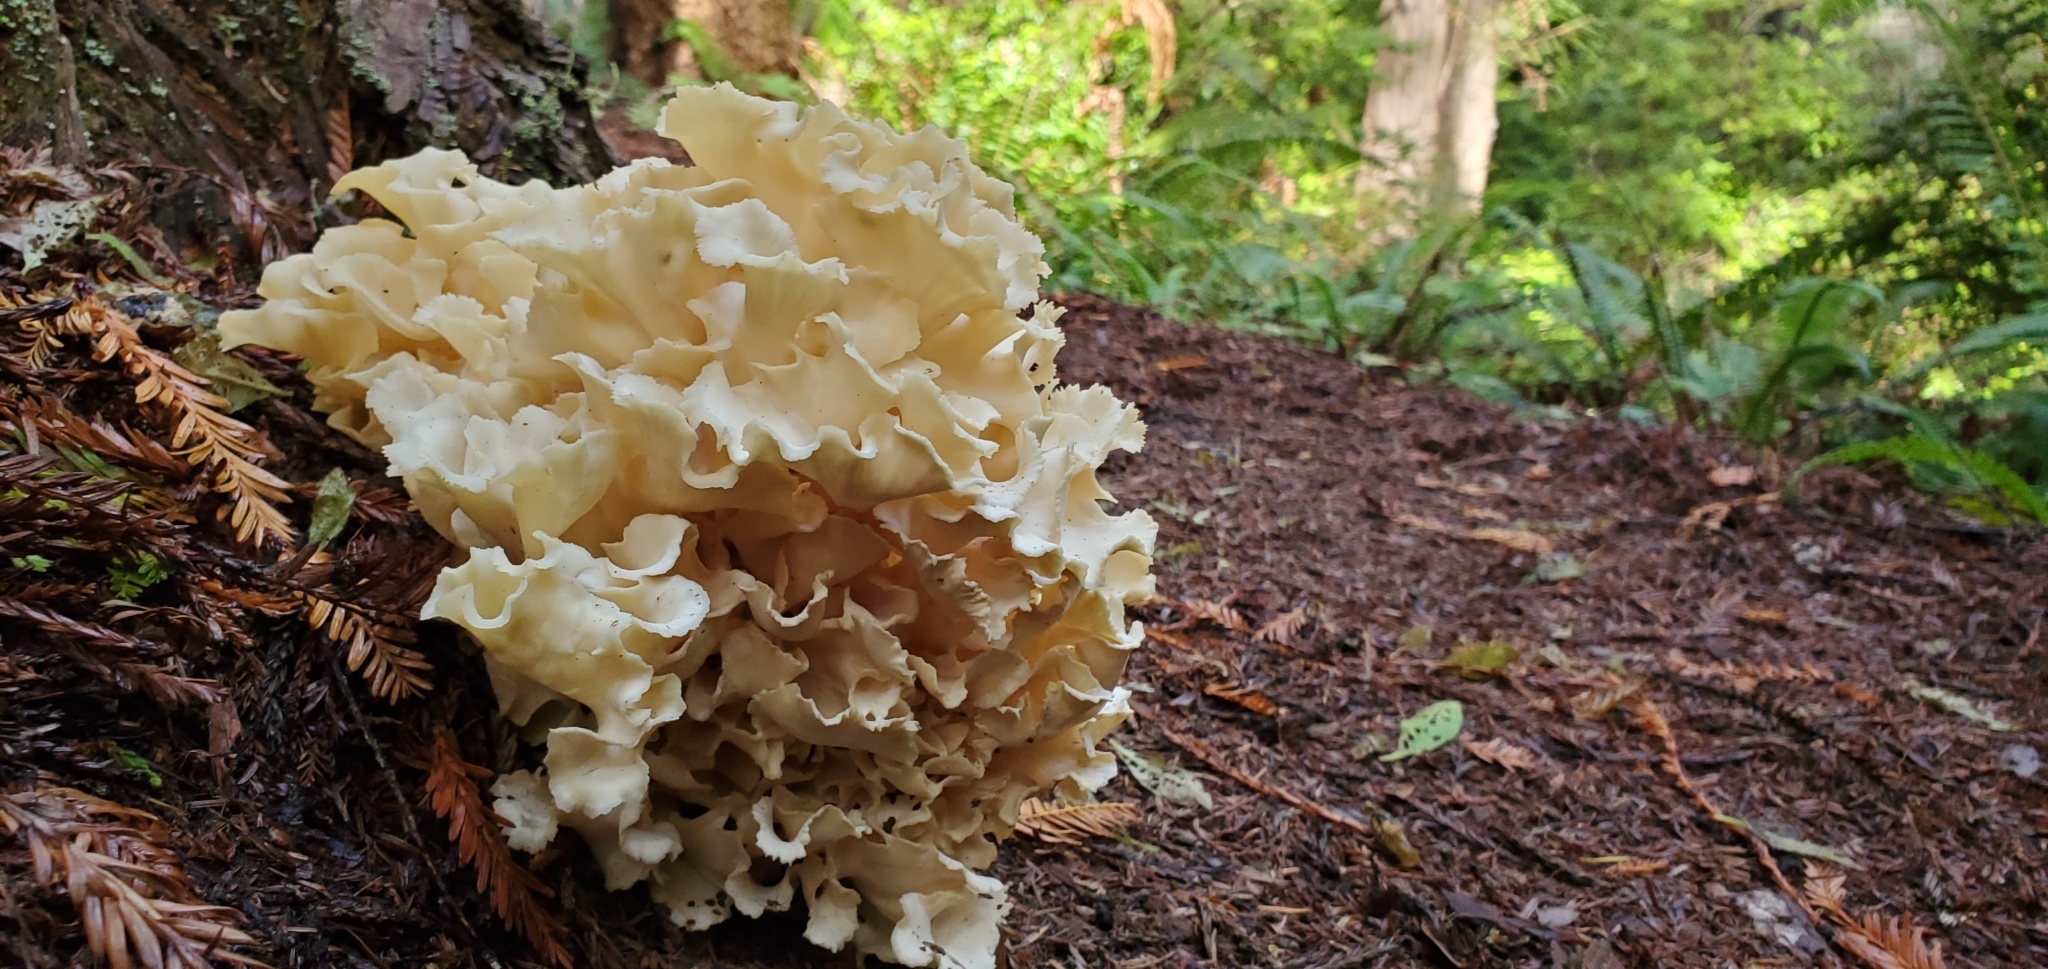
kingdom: Fungi
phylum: Basidiomycota
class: Agaricomycetes
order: Polyporales
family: Sparassidaceae
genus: Sparassis
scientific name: Sparassis radicata
